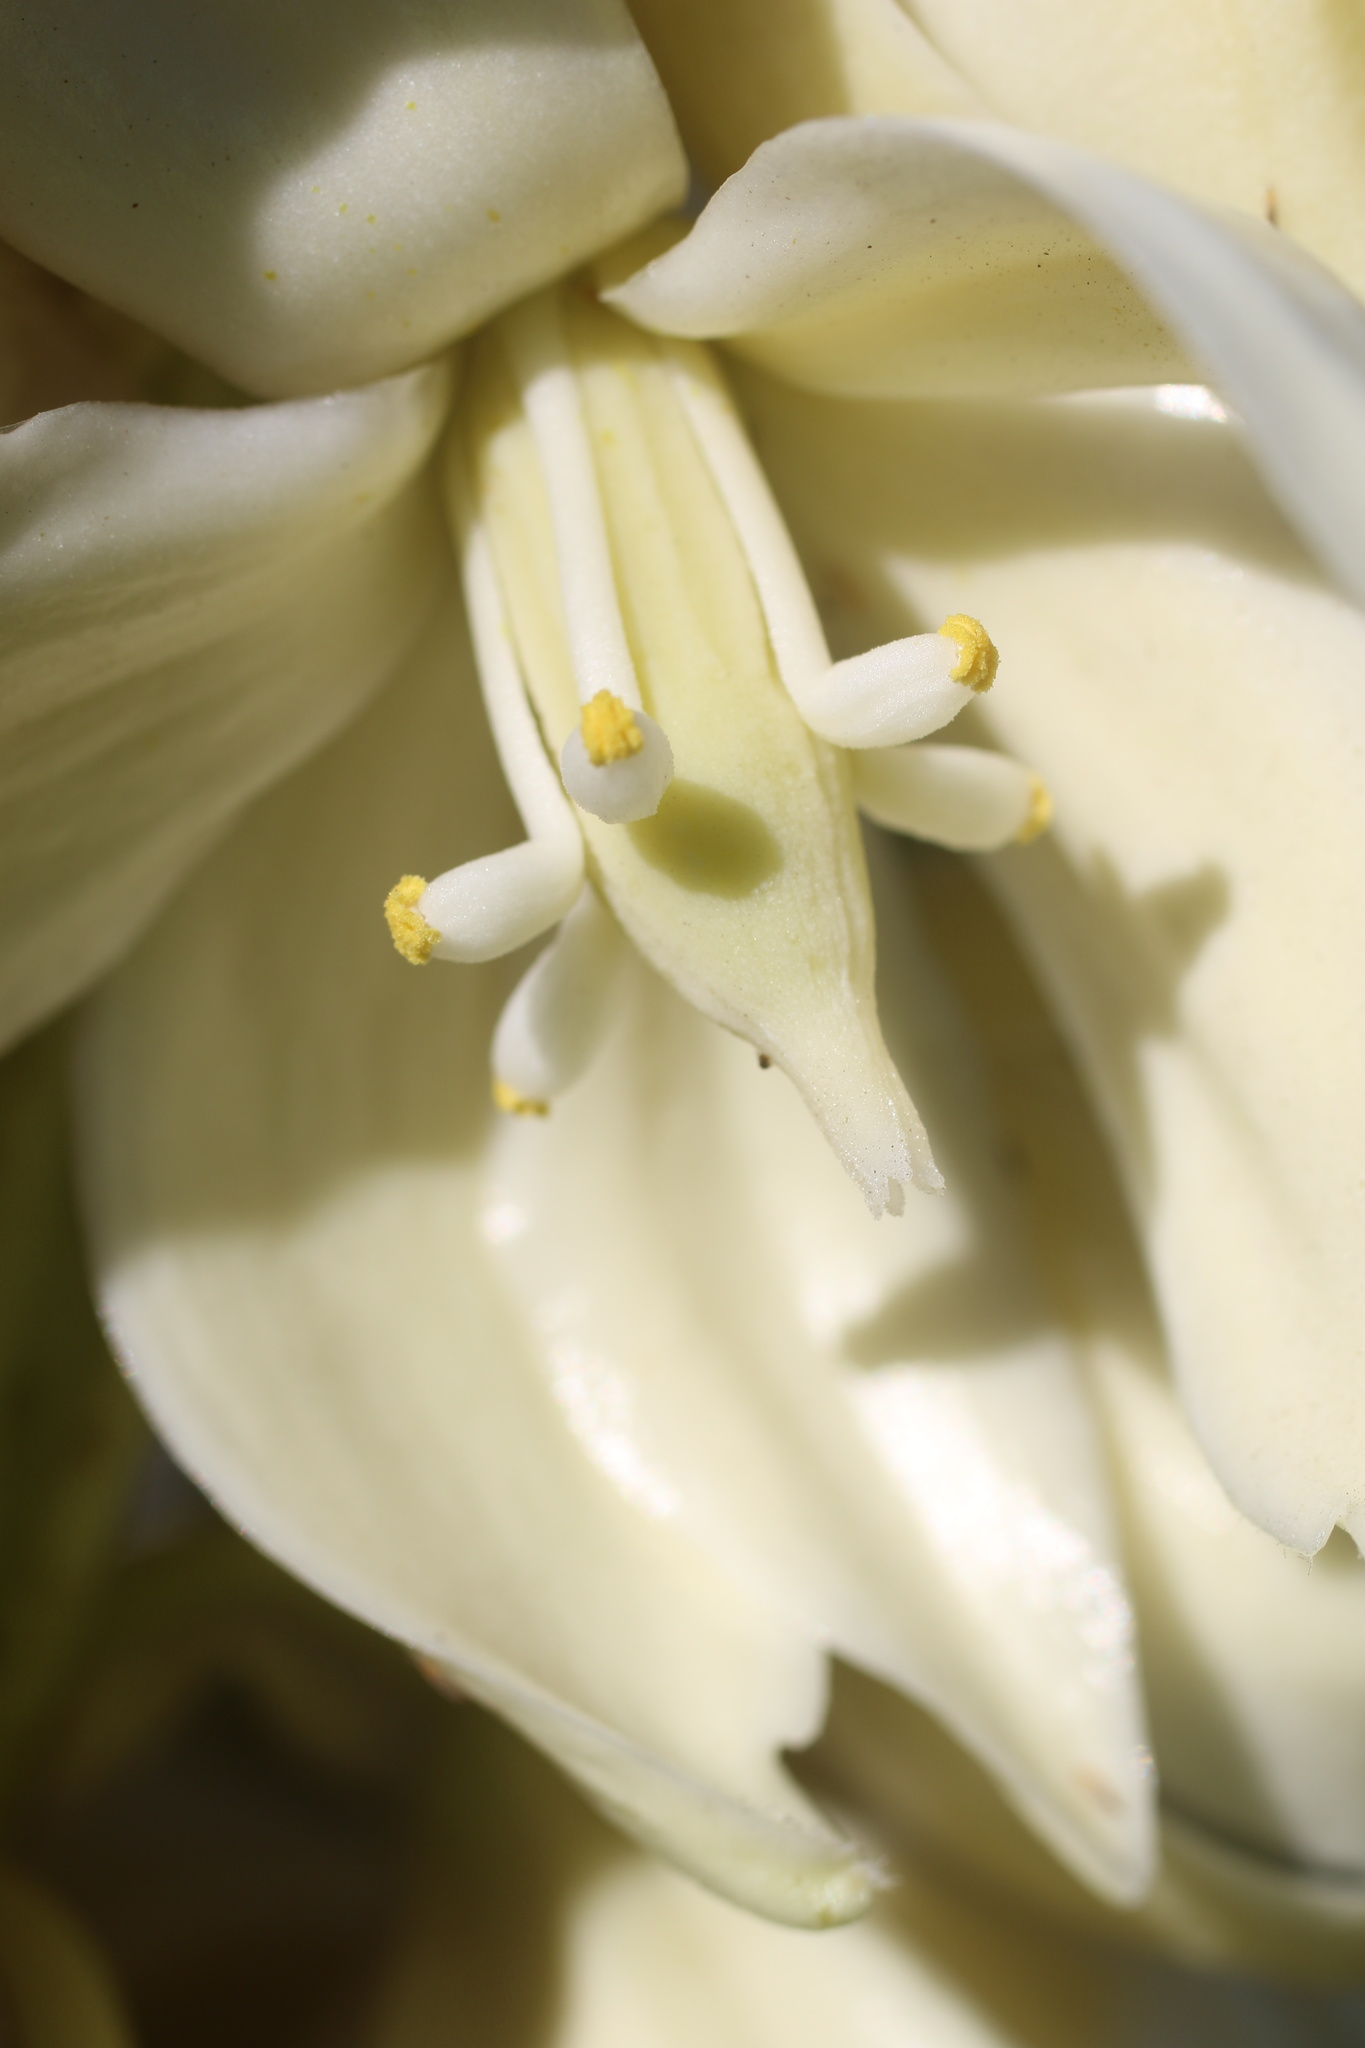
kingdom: Plantae
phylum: Tracheophyta
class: Liliopsida
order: Asparagales
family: Asparagaceae
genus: Yucca
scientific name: Yucca schidigera
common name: Mojave yucca
